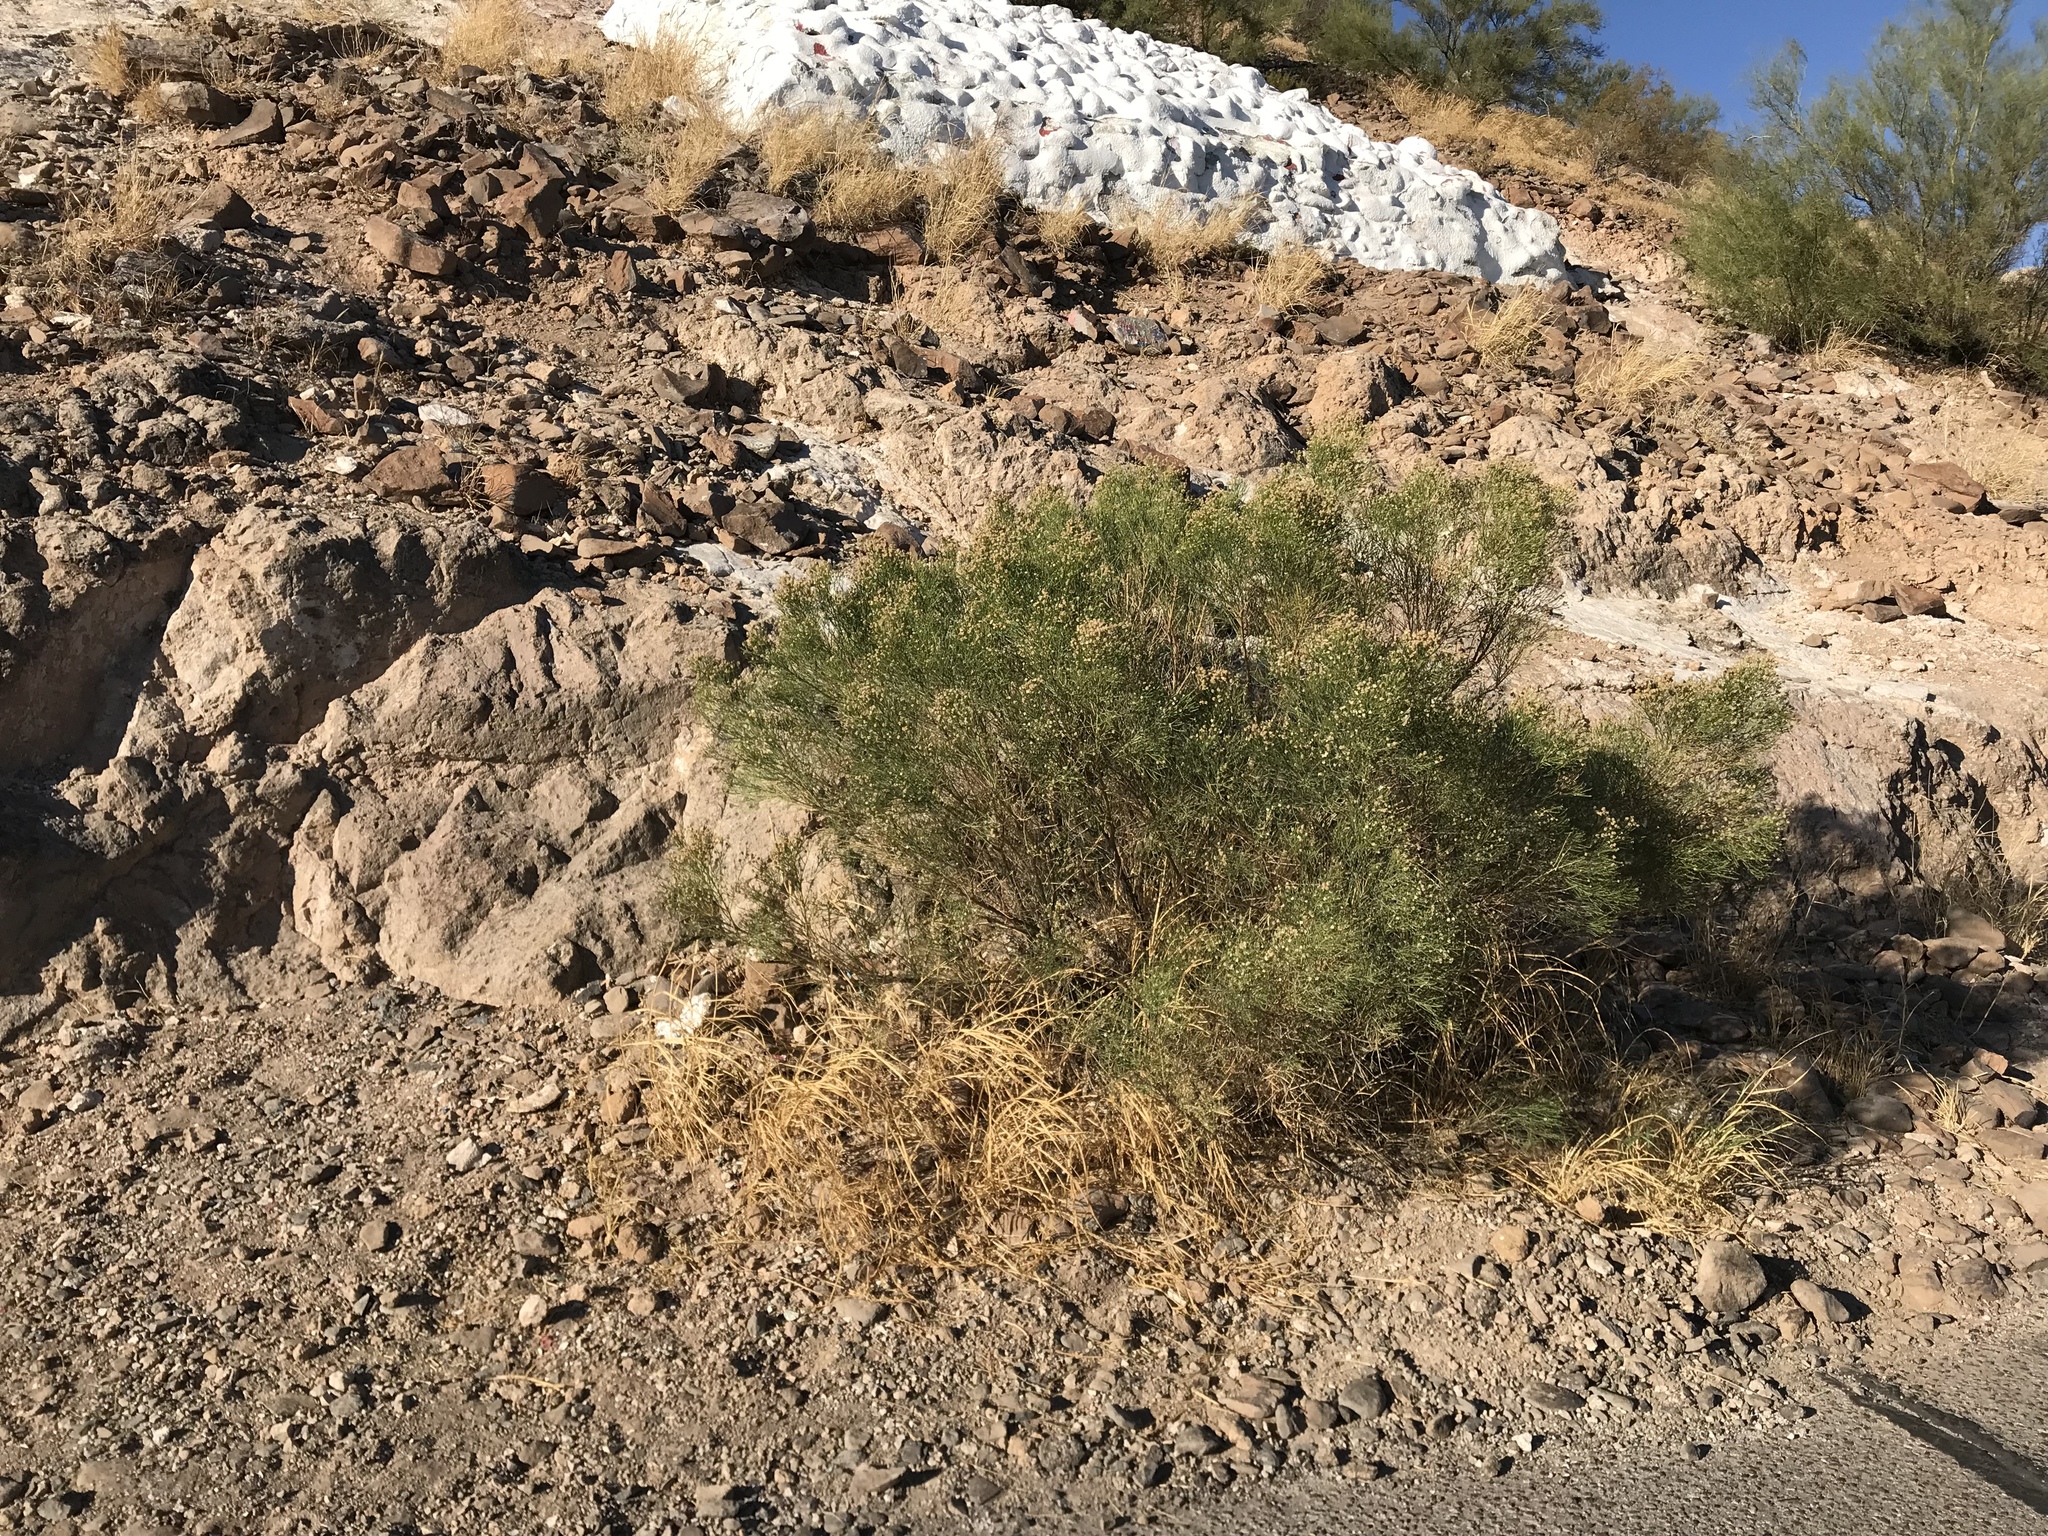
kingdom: Plantae
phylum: Tracheophyta
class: Magnoliopsida
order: Asterales
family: Asteraceae
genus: Baccharis
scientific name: Baccharis sarothroides
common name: Desert-broom
